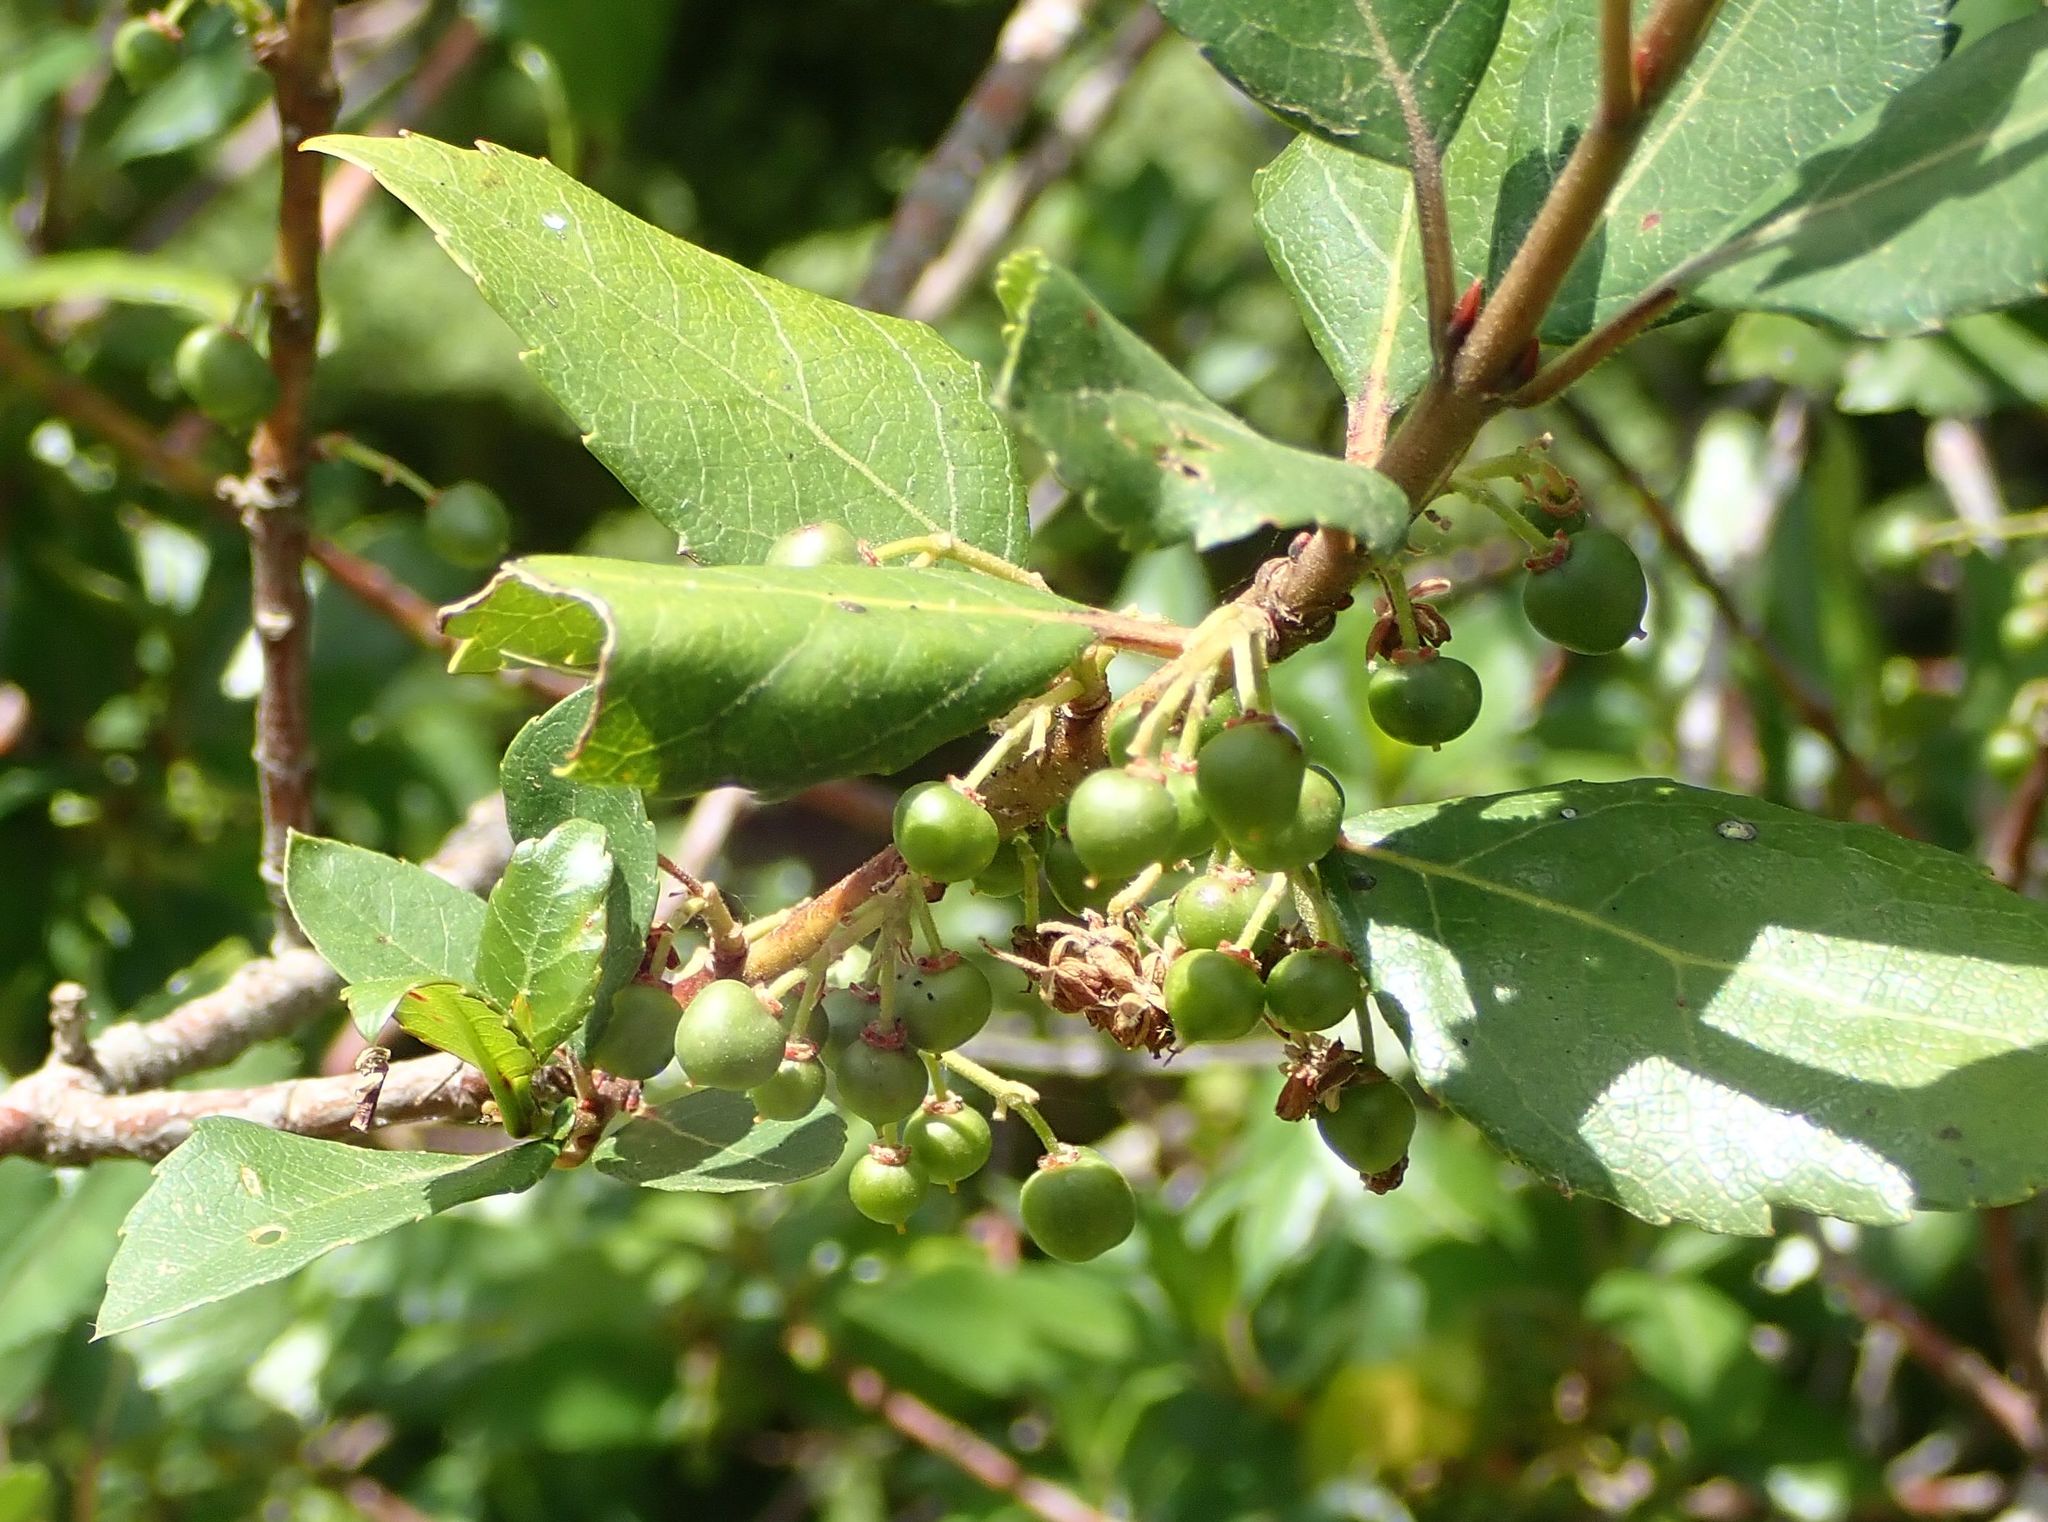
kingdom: Plantae
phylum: Tracheophyta
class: Magnoliopsida
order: Oxalidales
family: Elaeocarpaceae
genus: Aristotelia
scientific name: Aristotelia
